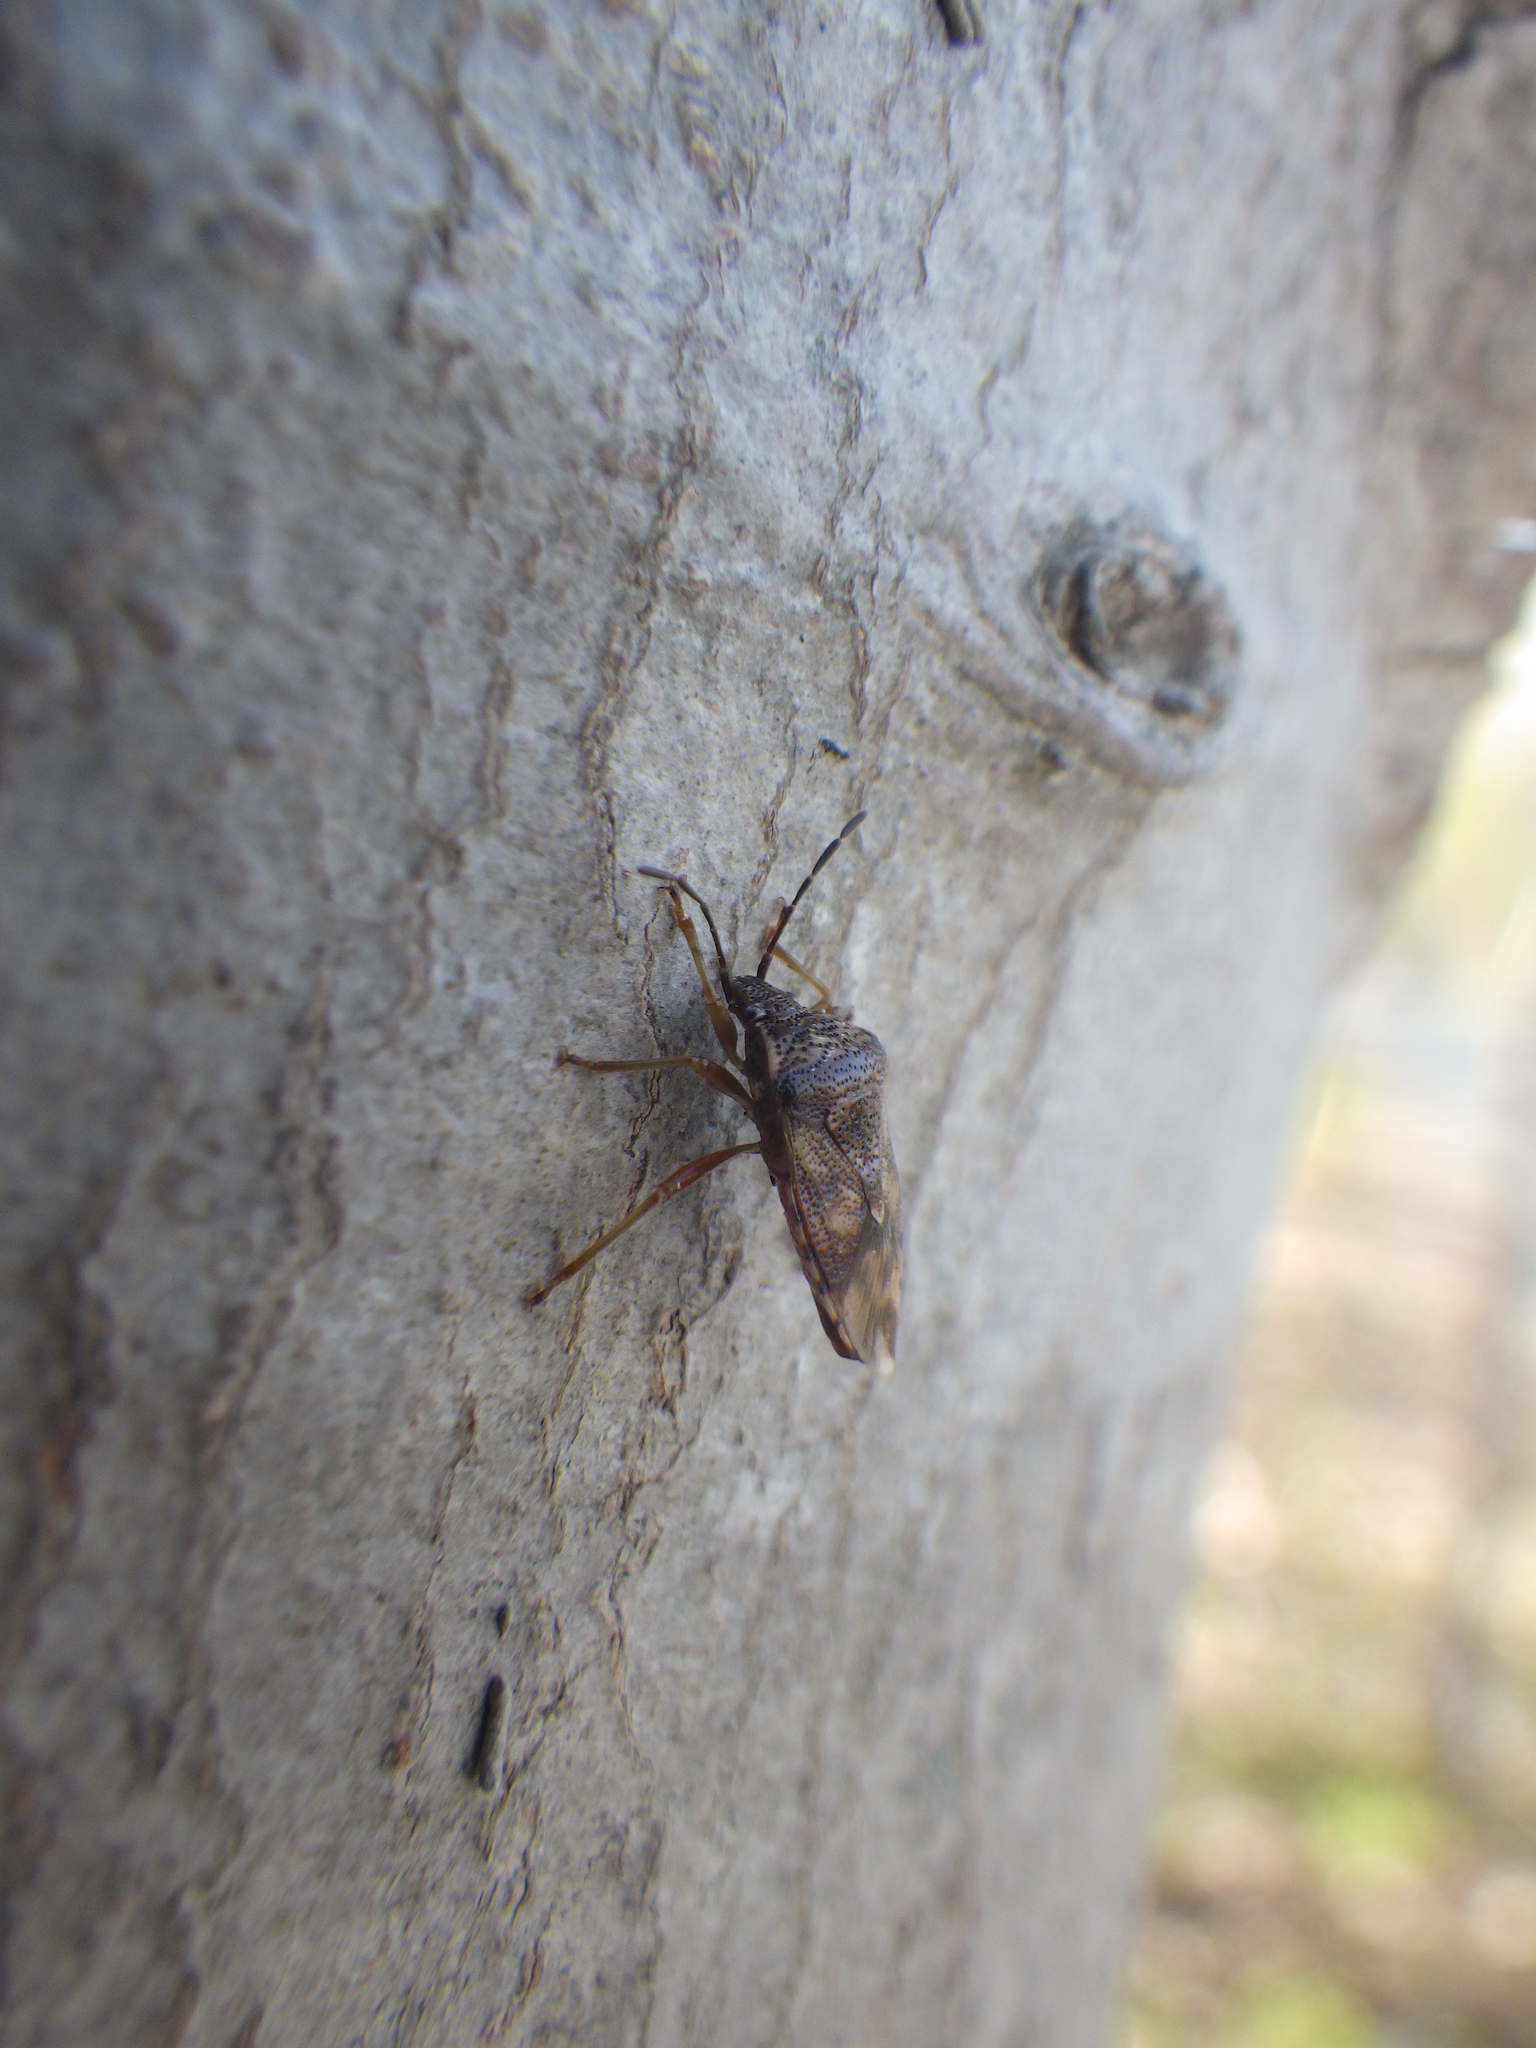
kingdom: Animalia
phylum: Arthropoda
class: Insecta
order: Hemiptera
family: Acanthosomatidae
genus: Elasmucha
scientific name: Elasmucha lateralis
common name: Shield bug
